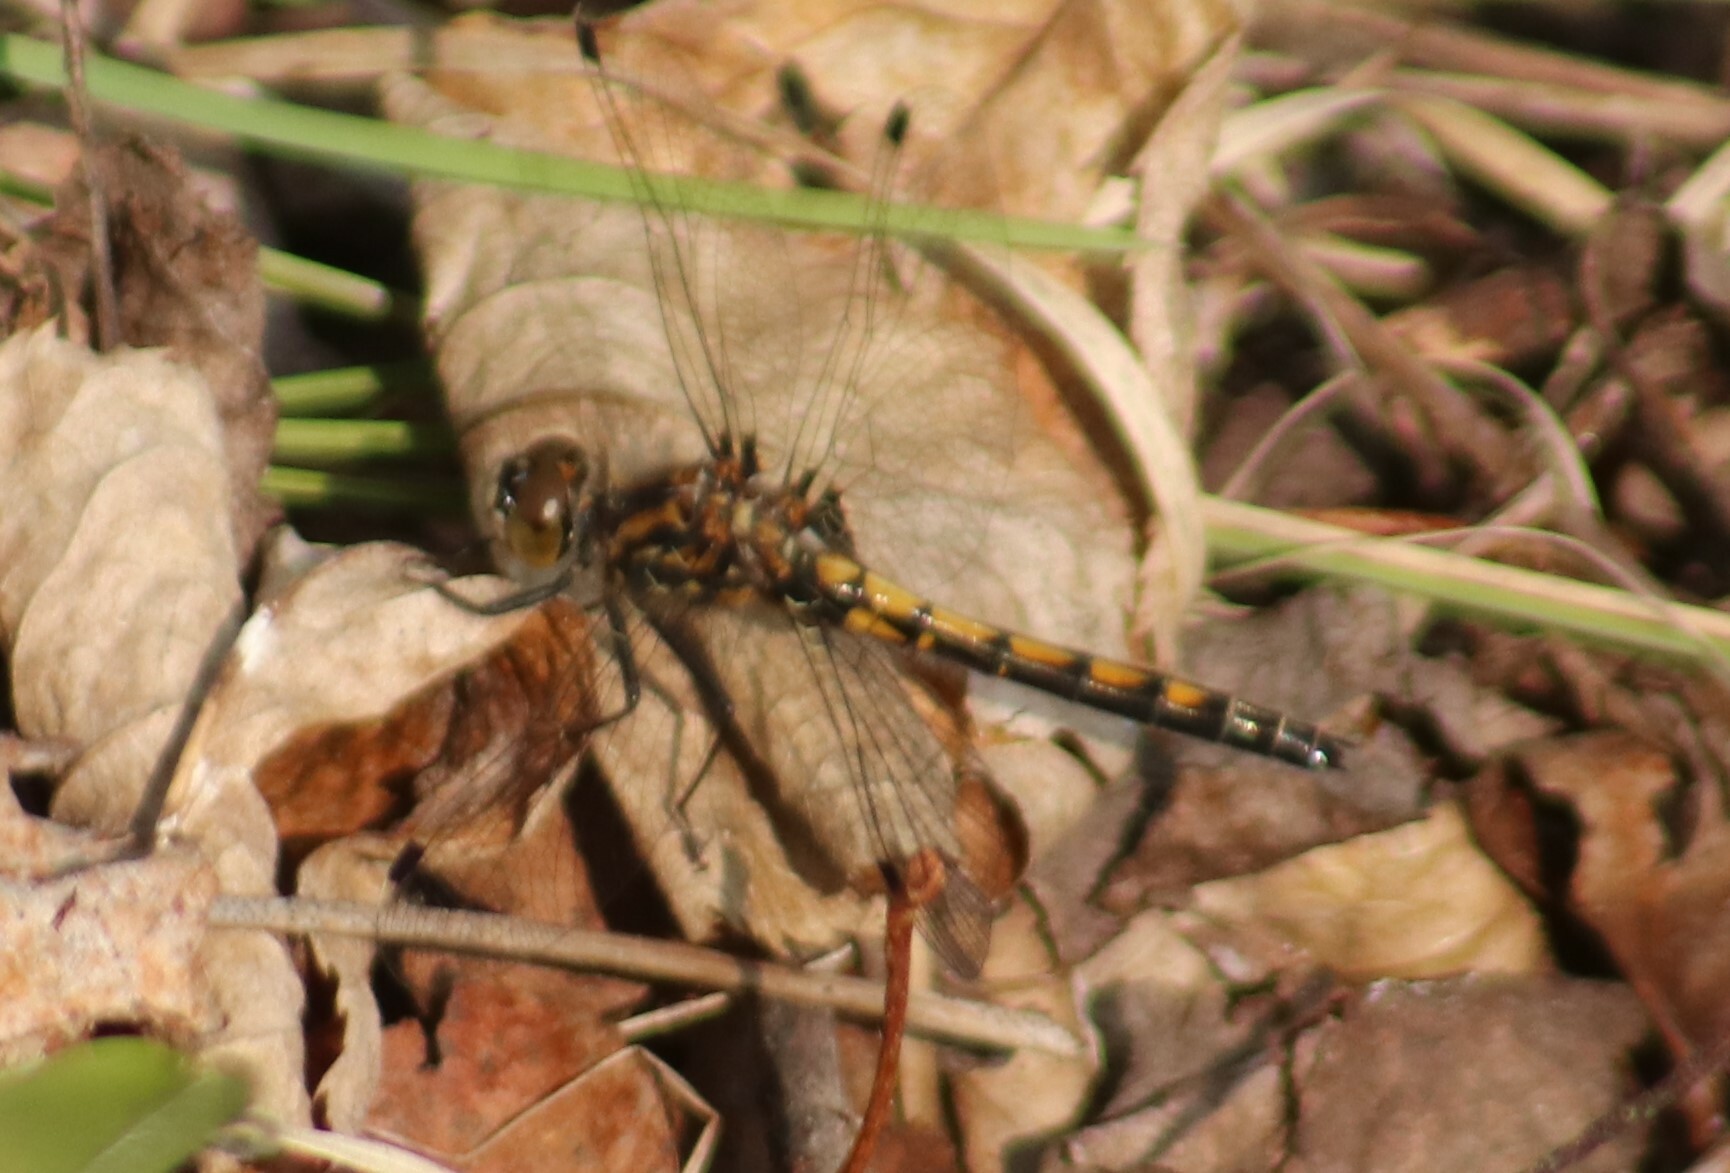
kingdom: Animalia
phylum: Arthropoda
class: Insecta
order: Odonata
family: Libellulidae
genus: Leucorrhinia
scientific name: Leucorrhinia hudsonica
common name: Hudsonian whiteface
